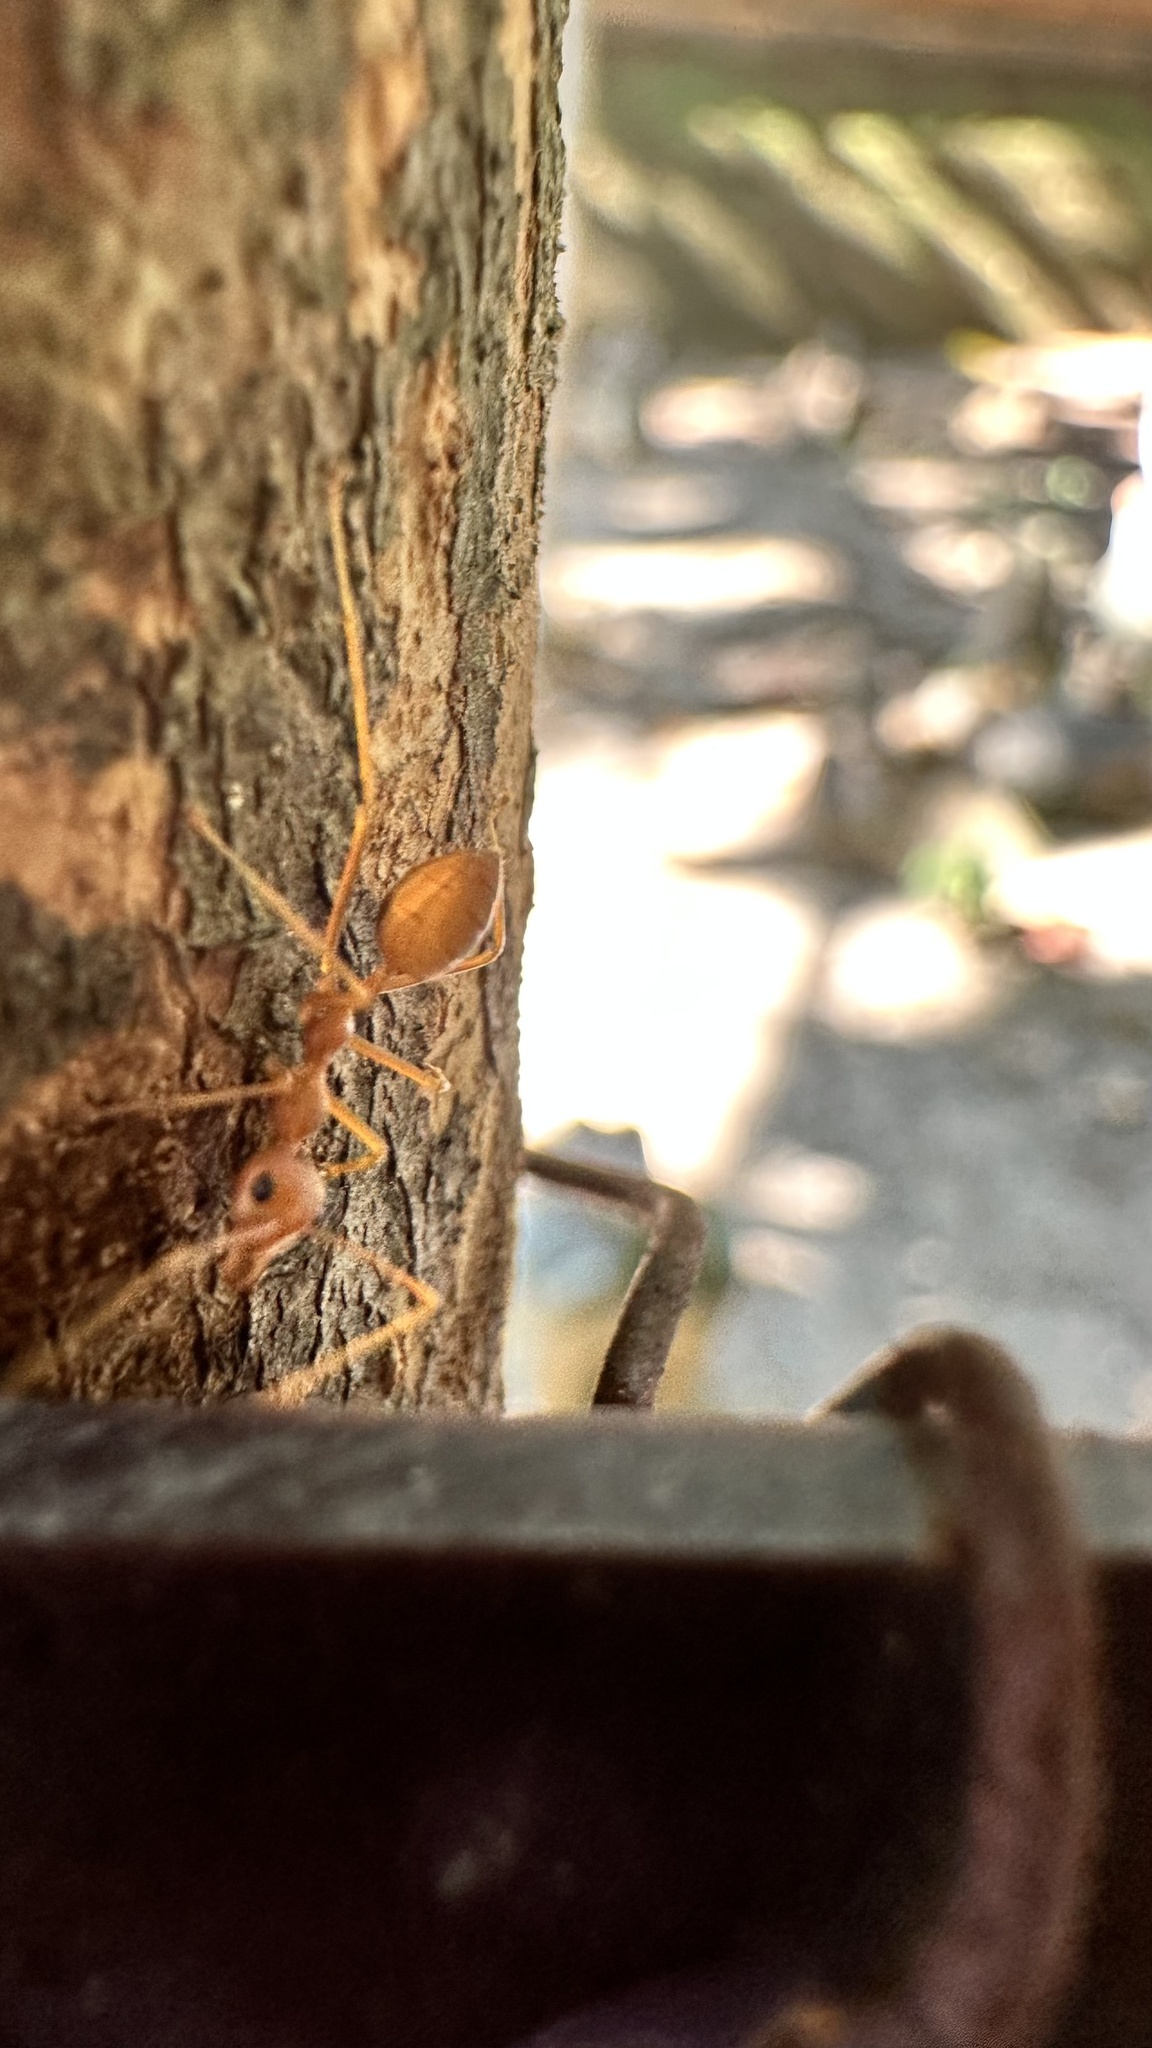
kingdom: Animalia
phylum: Arthropoda
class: Insecta
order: Hymenoptera
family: Formicidae
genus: Oecophylla
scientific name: Oecophylla smaragdina
